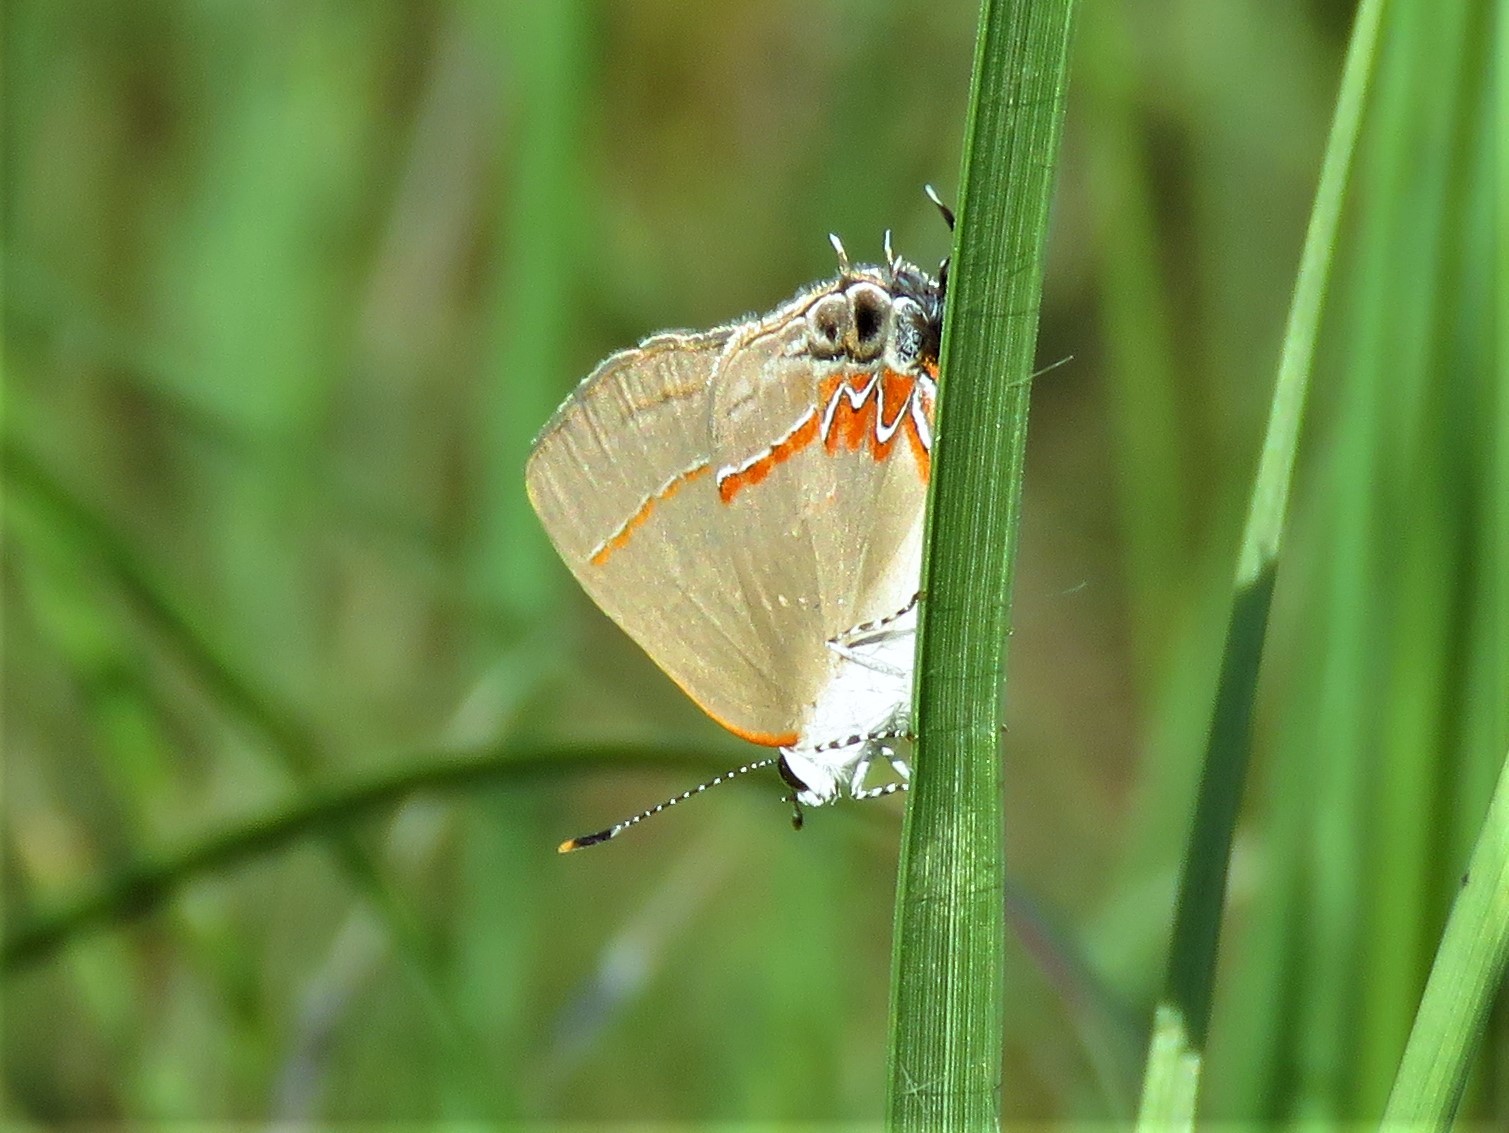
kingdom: Animalia
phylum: Arthropoda
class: Insecta
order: Lepidoptera
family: Lycaenidae
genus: Calycopis
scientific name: Calycopis cecrops
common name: Red-banded hairstreak
